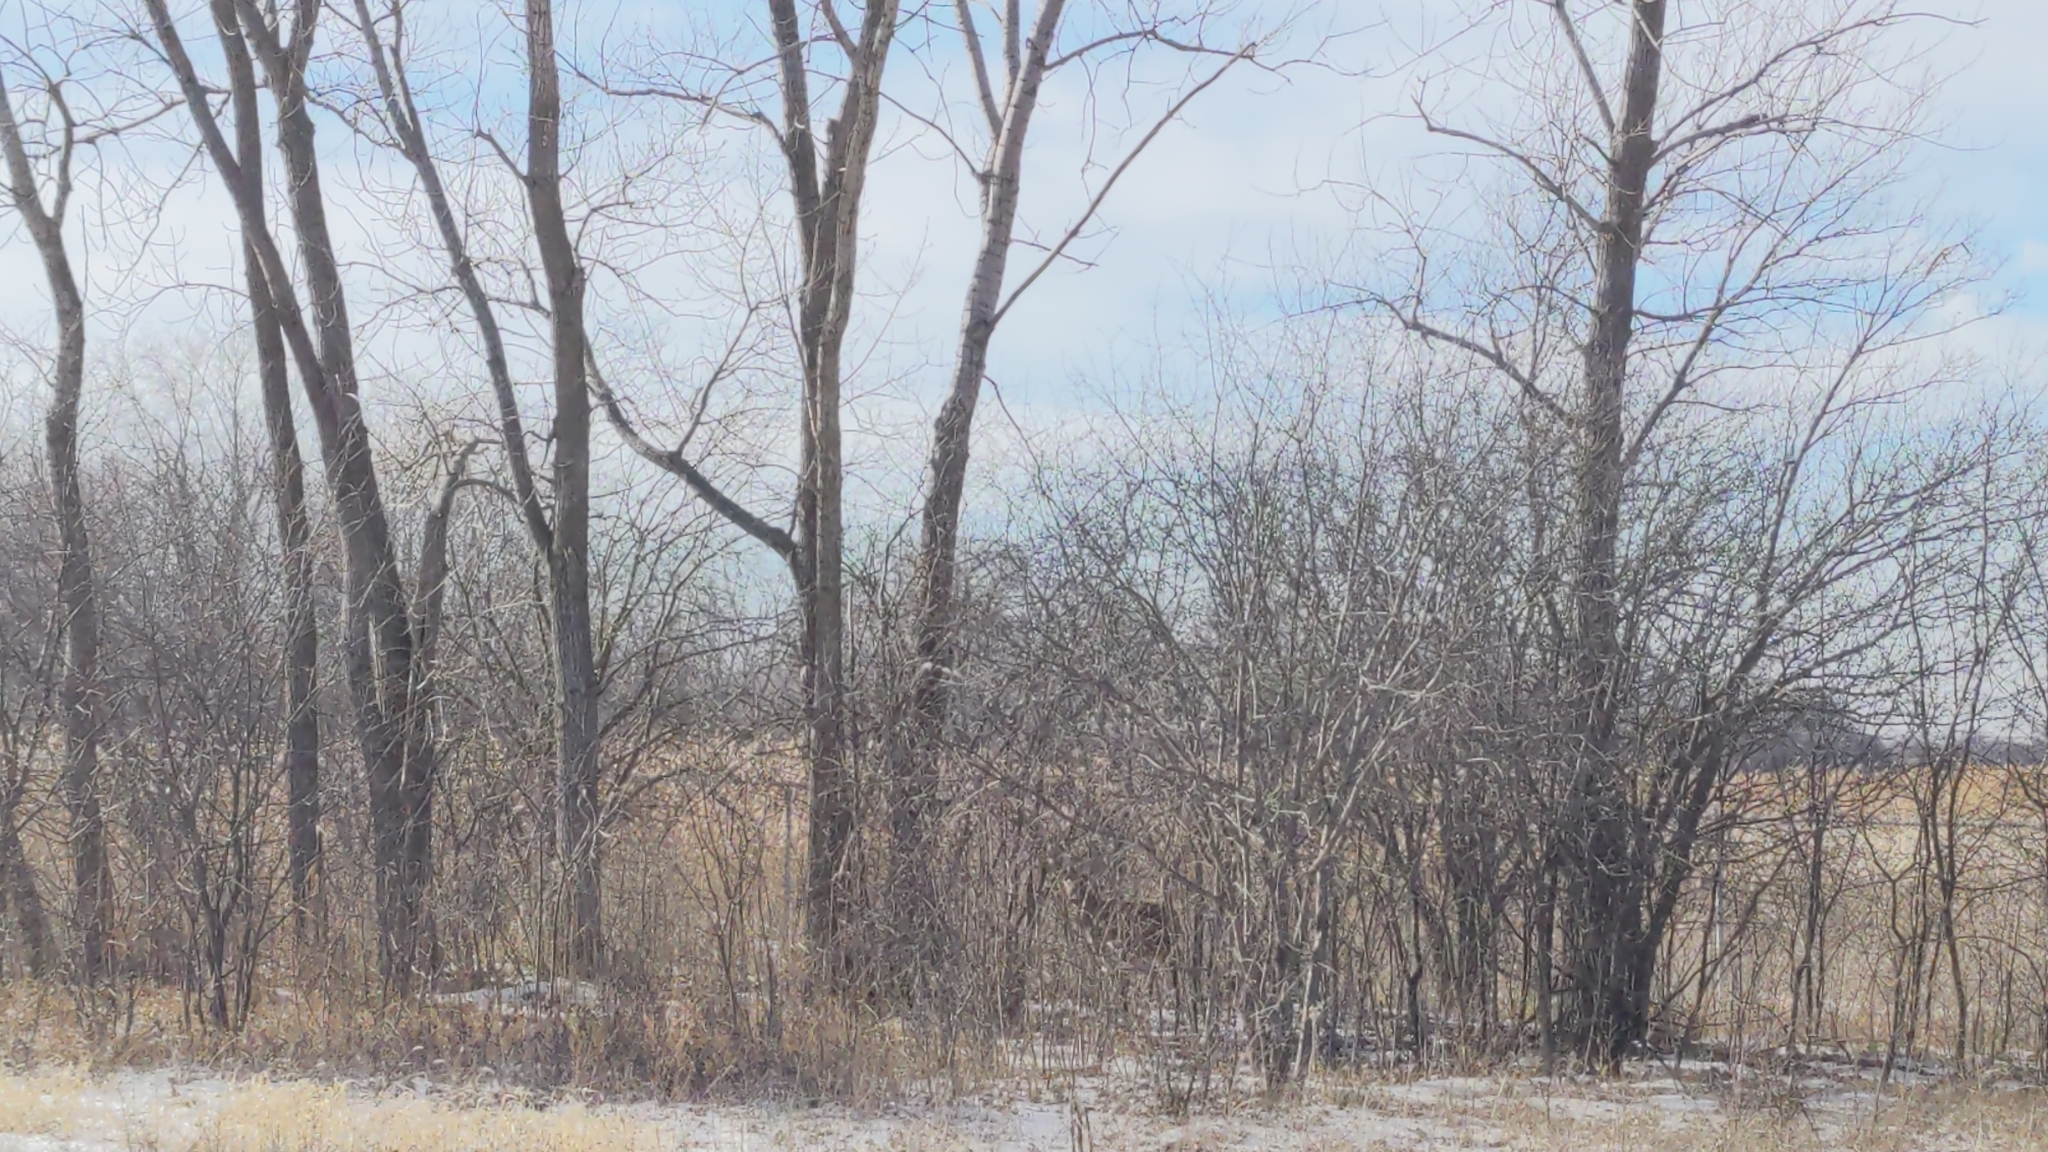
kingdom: Animalia
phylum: Chordata
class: Mammalia
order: Artiodactyla
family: Cervidae
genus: Odocoileus
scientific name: Odocoileus virginianus
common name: White-tailed deer
